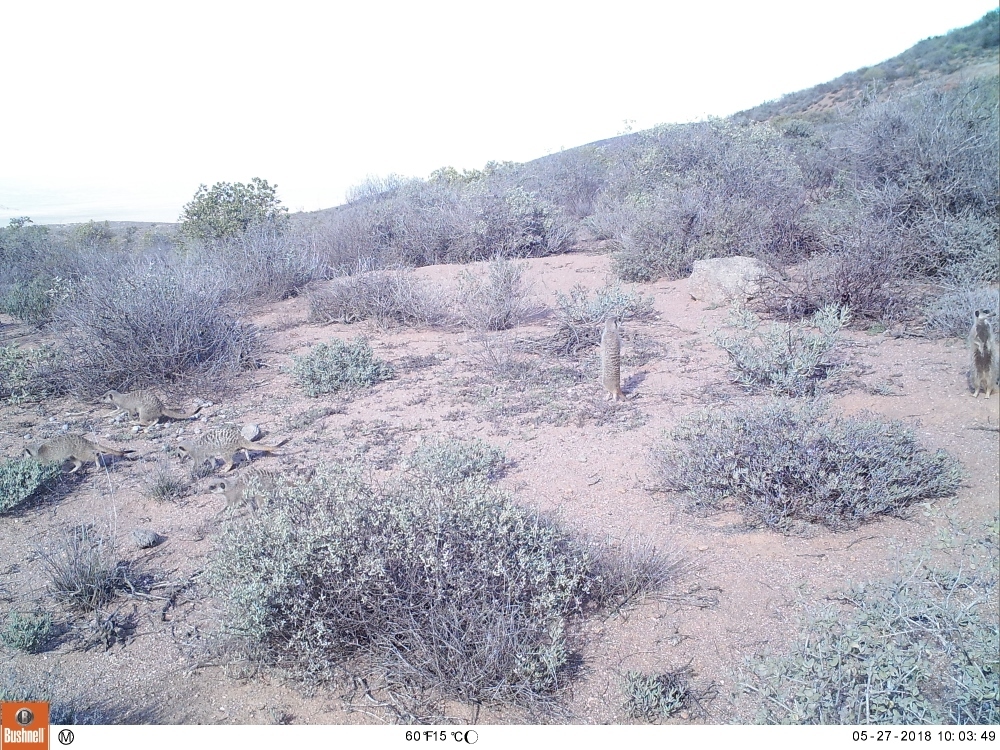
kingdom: Animalia
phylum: Chordata
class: Mammalia
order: Carnivora
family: Herpestidae
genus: Suricata
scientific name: Suricata suricatta
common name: Meerkat
